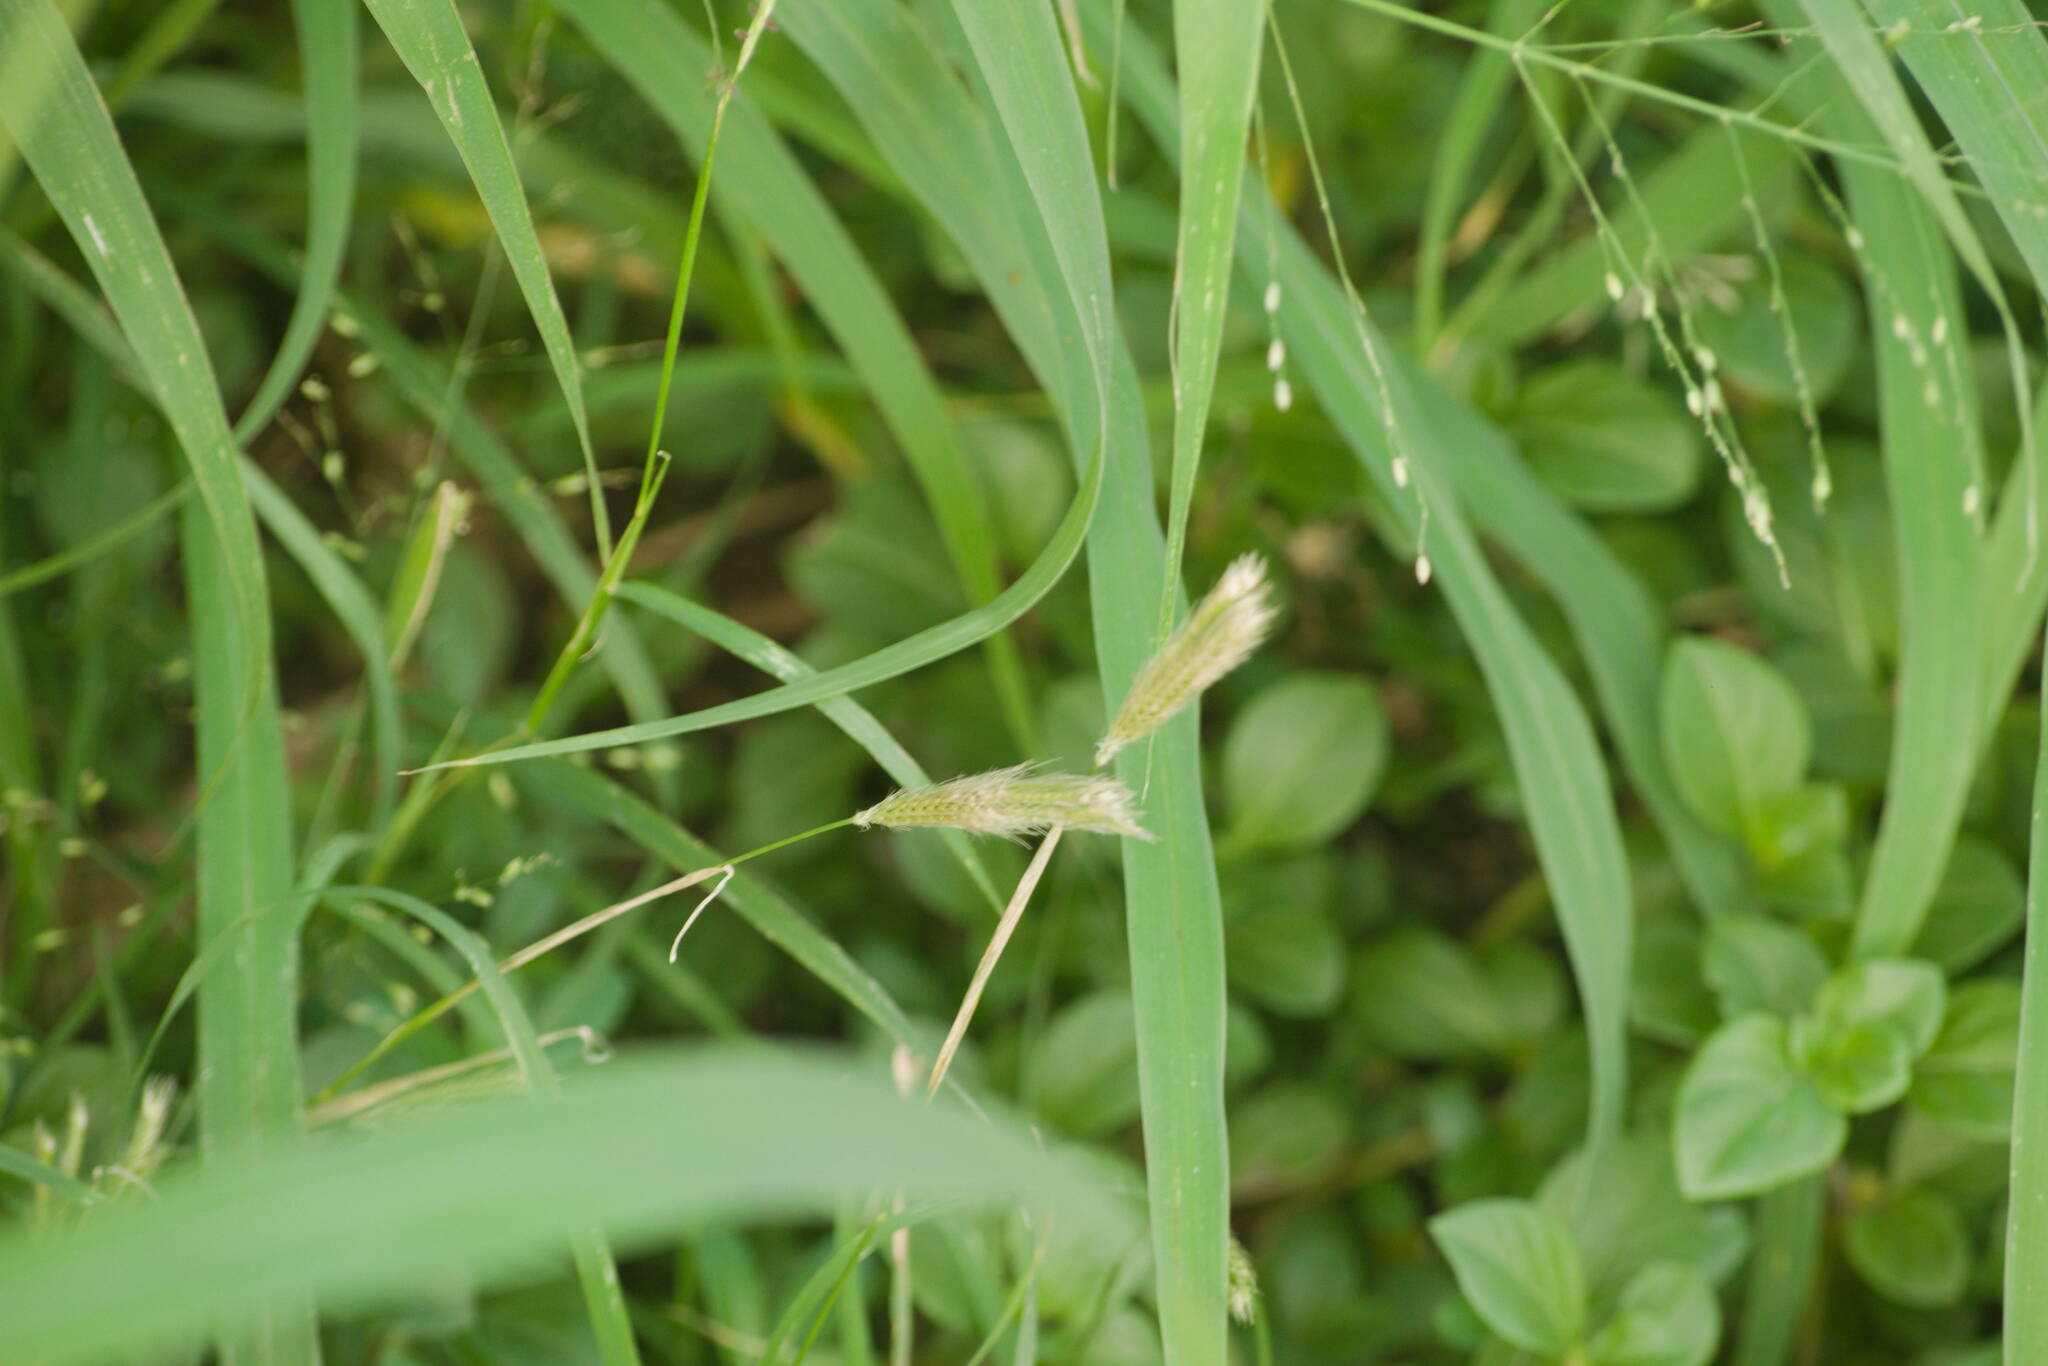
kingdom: Plantae
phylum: Tracheophyta
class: Liliopsida
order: Poales
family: Poaceae
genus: Chloris
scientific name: Chloris virgata
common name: Feathery rhodes-grass
